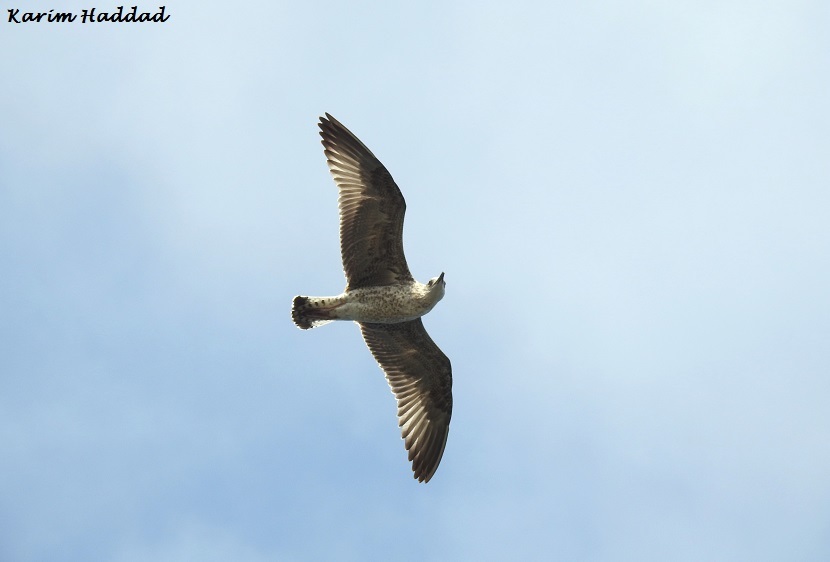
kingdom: Animalia
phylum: Chordata
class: Aves
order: Charadriiformes
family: Laridae
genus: Larus
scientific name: Larus michahellis
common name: Yellow-legged gull
